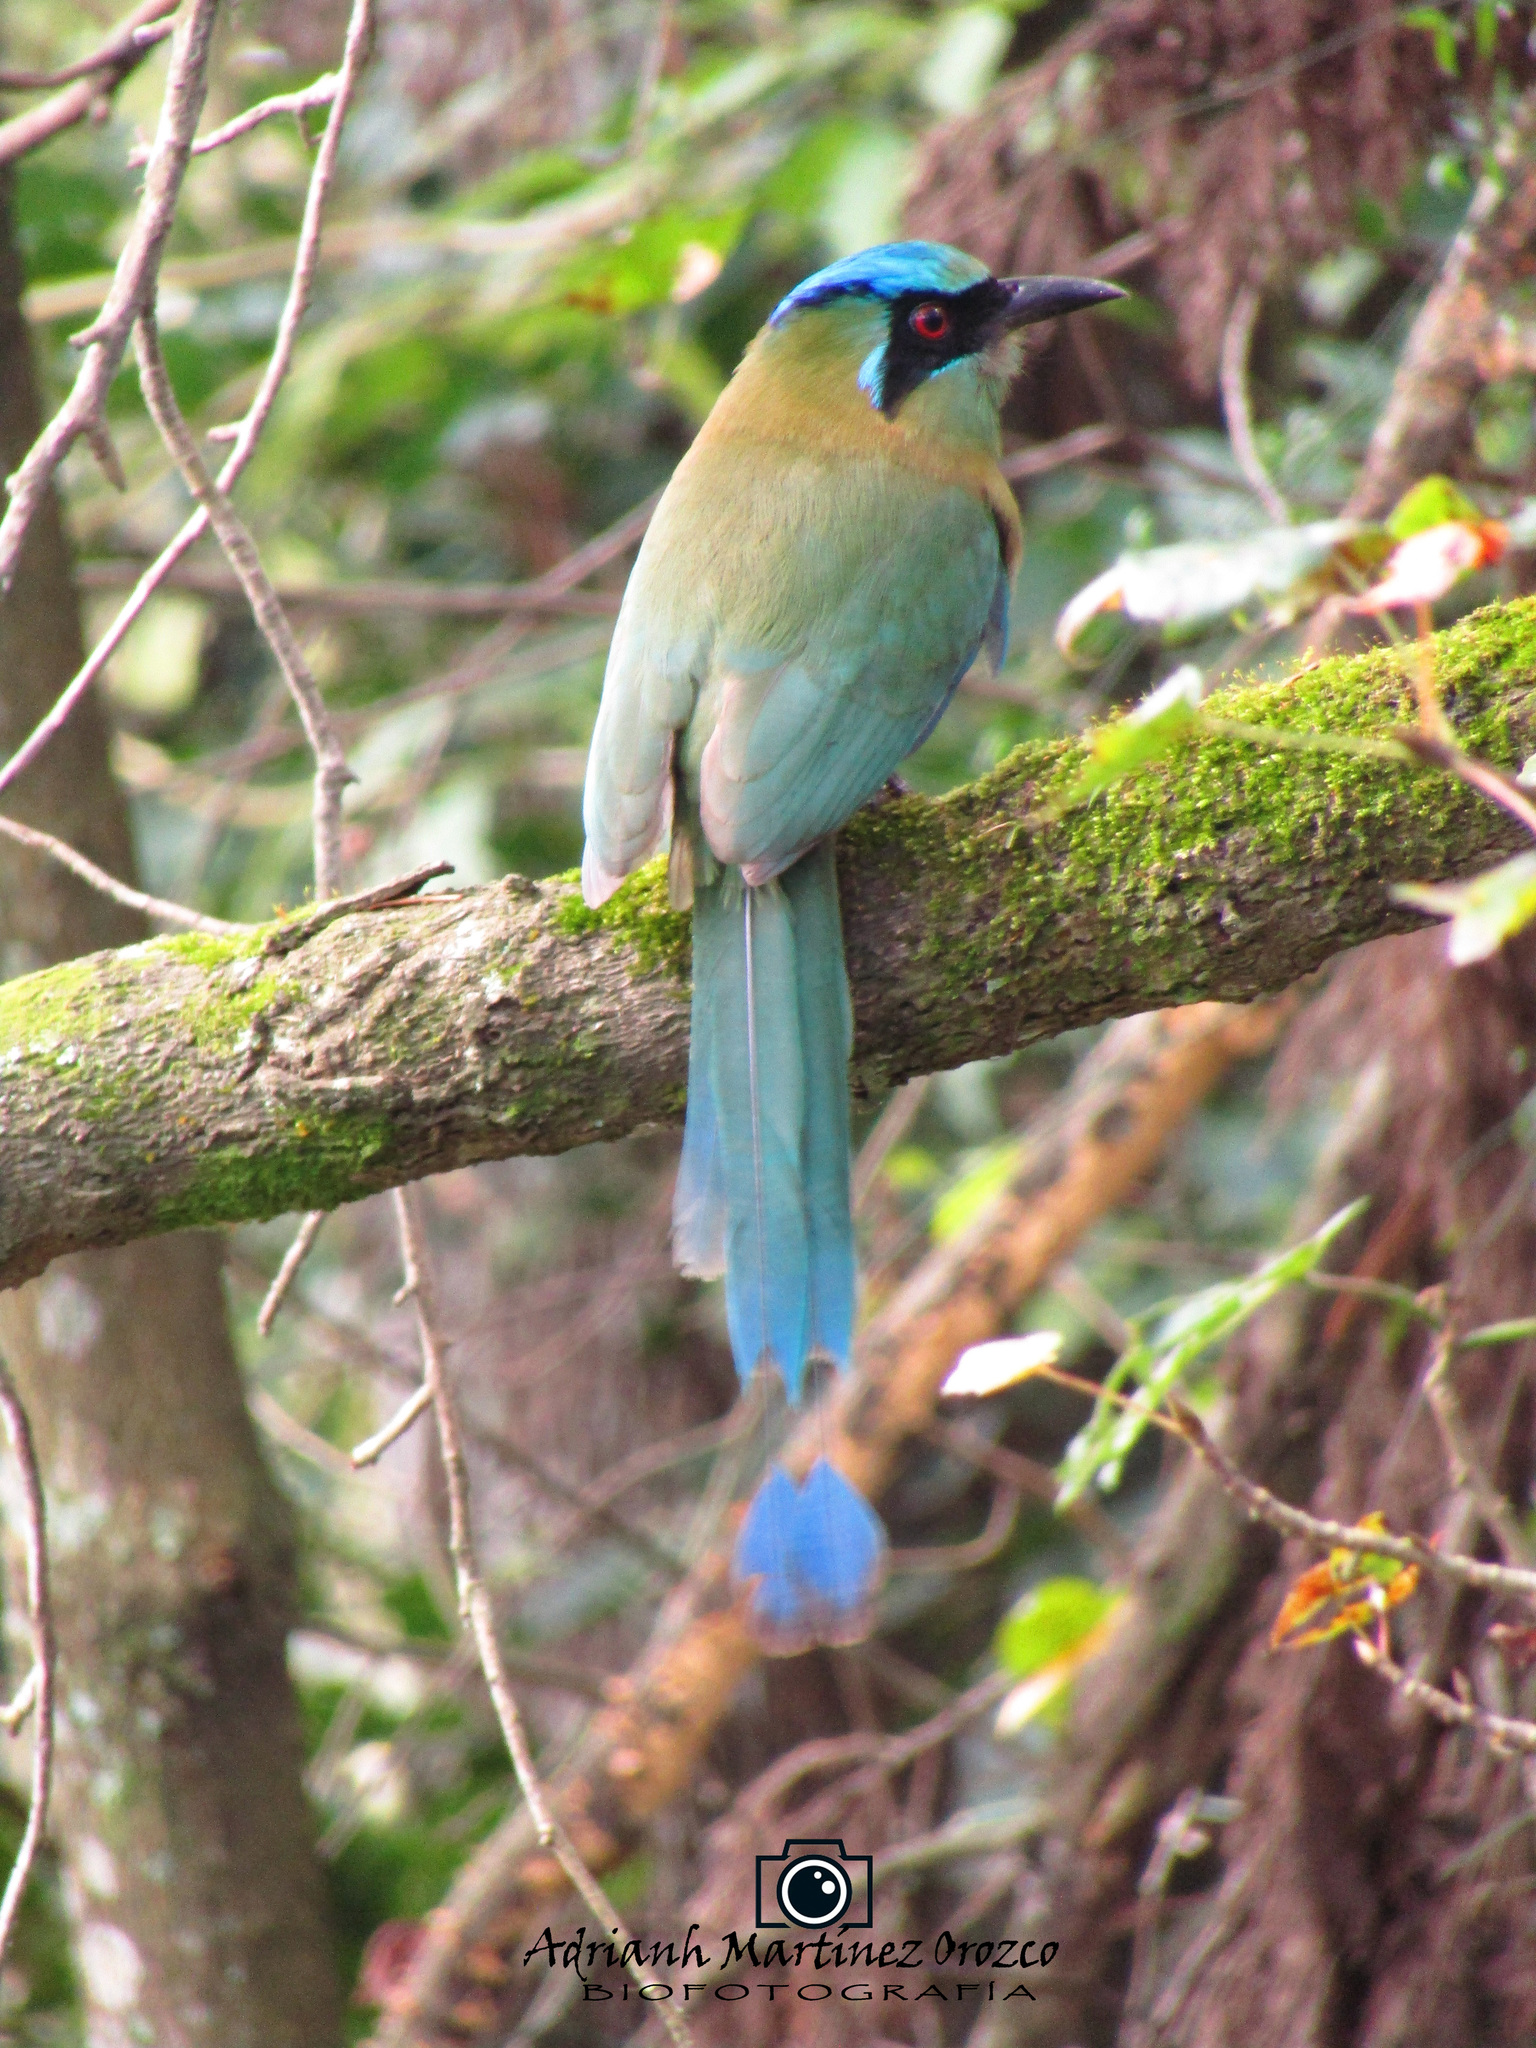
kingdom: Animalia
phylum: Chordata
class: Aves
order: Coraciiformes
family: Momotidae
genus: Momotus
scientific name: Momotus coeruliceps
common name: Blue-capped motmot
